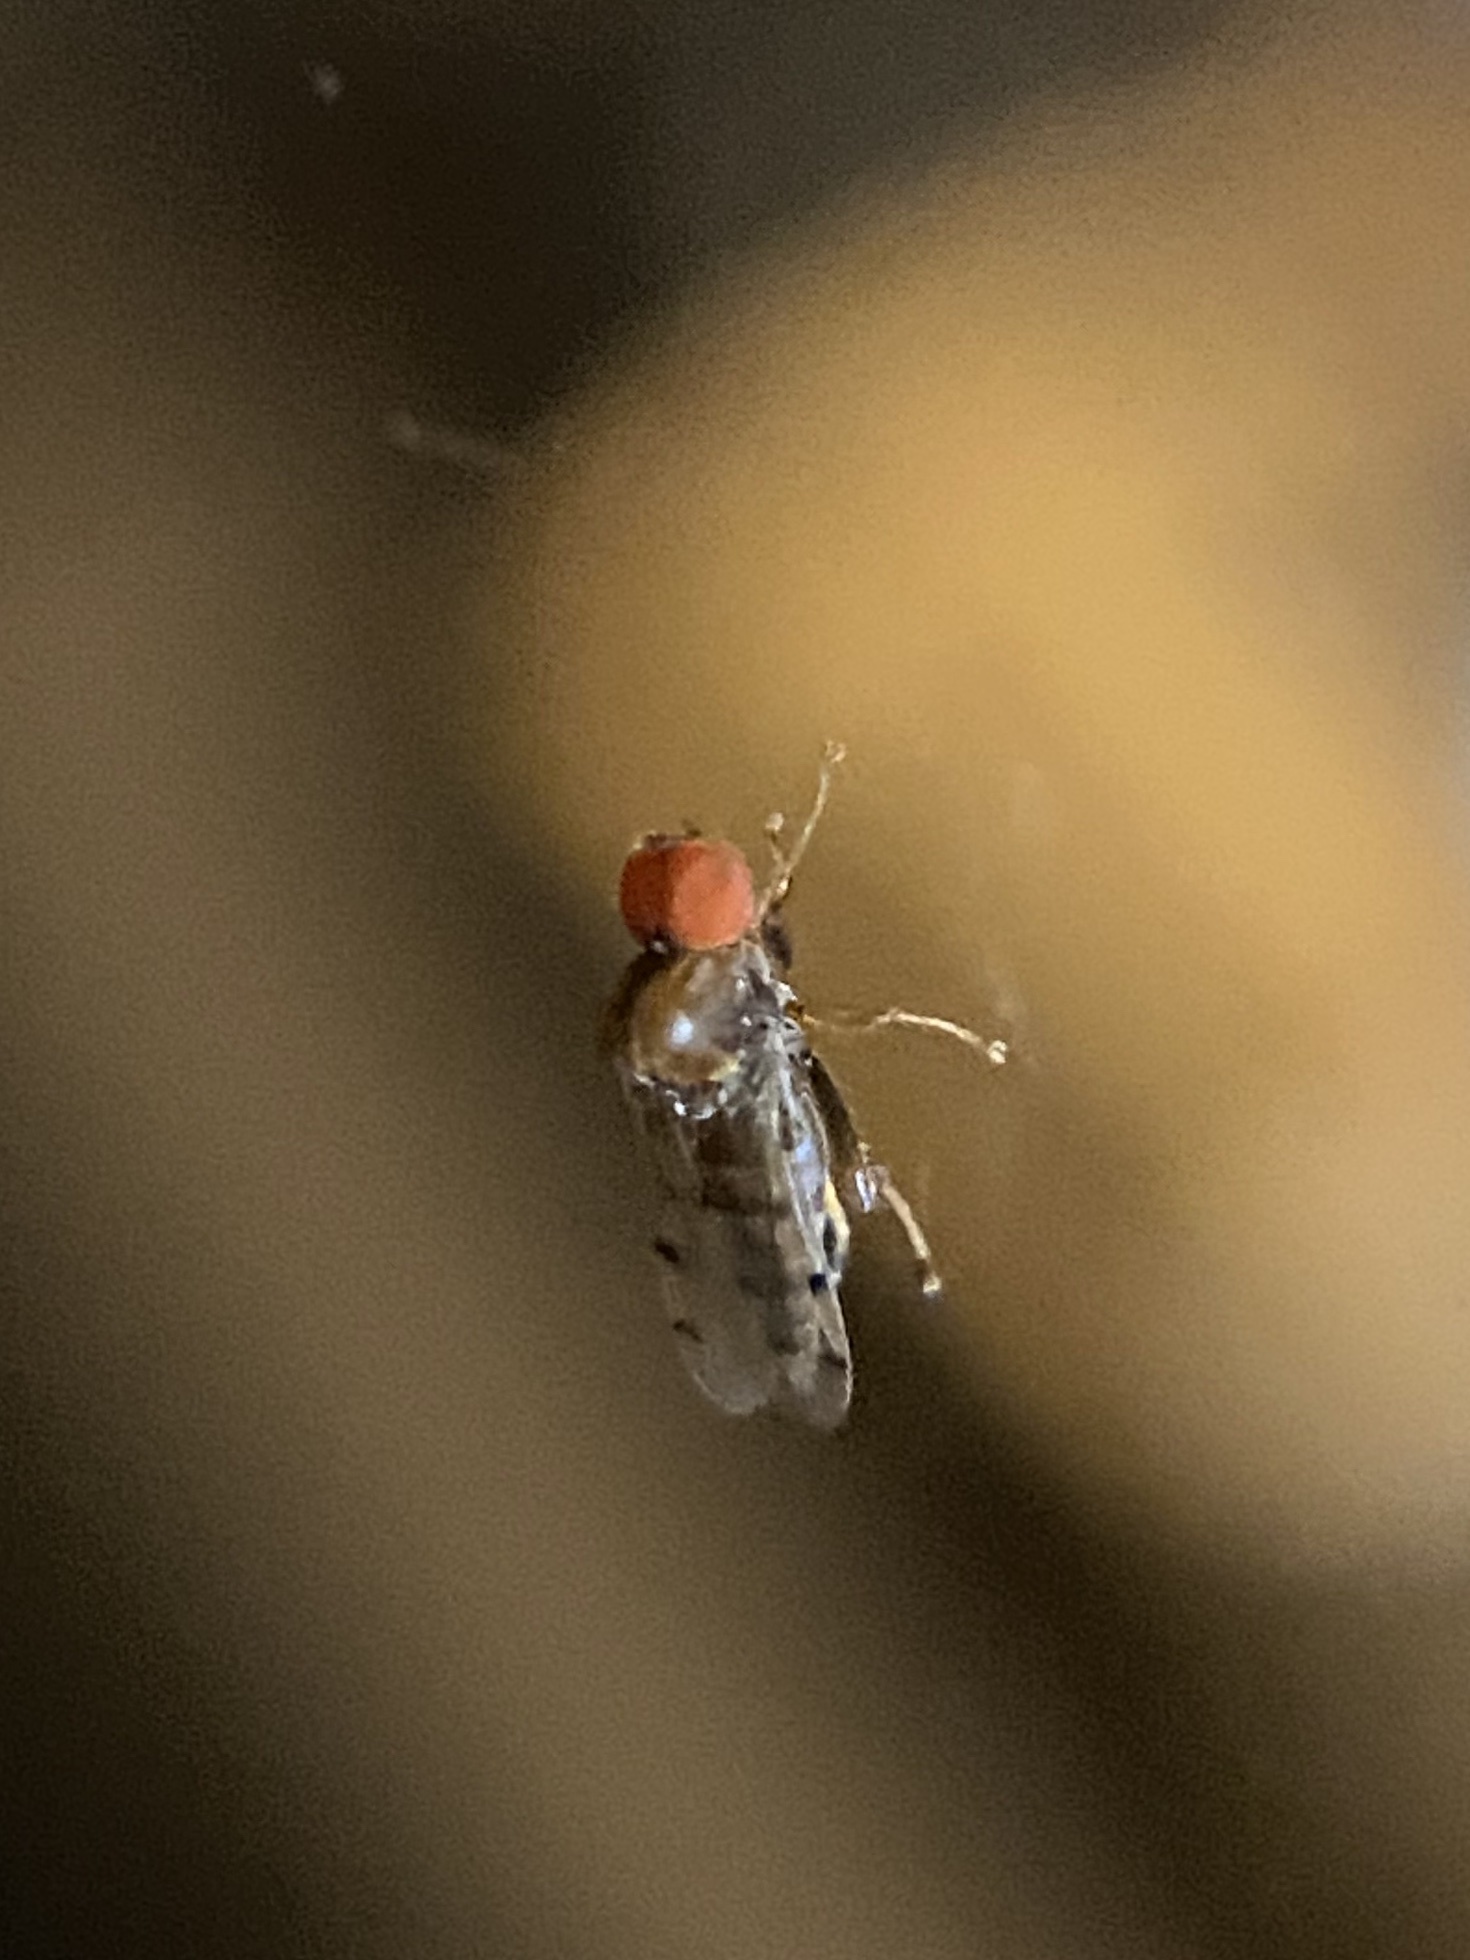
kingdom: Animalia
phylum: Arthropoda
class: Insecta
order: Diptera
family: Hybotidae
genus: Syneches
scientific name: Syneches simplex
